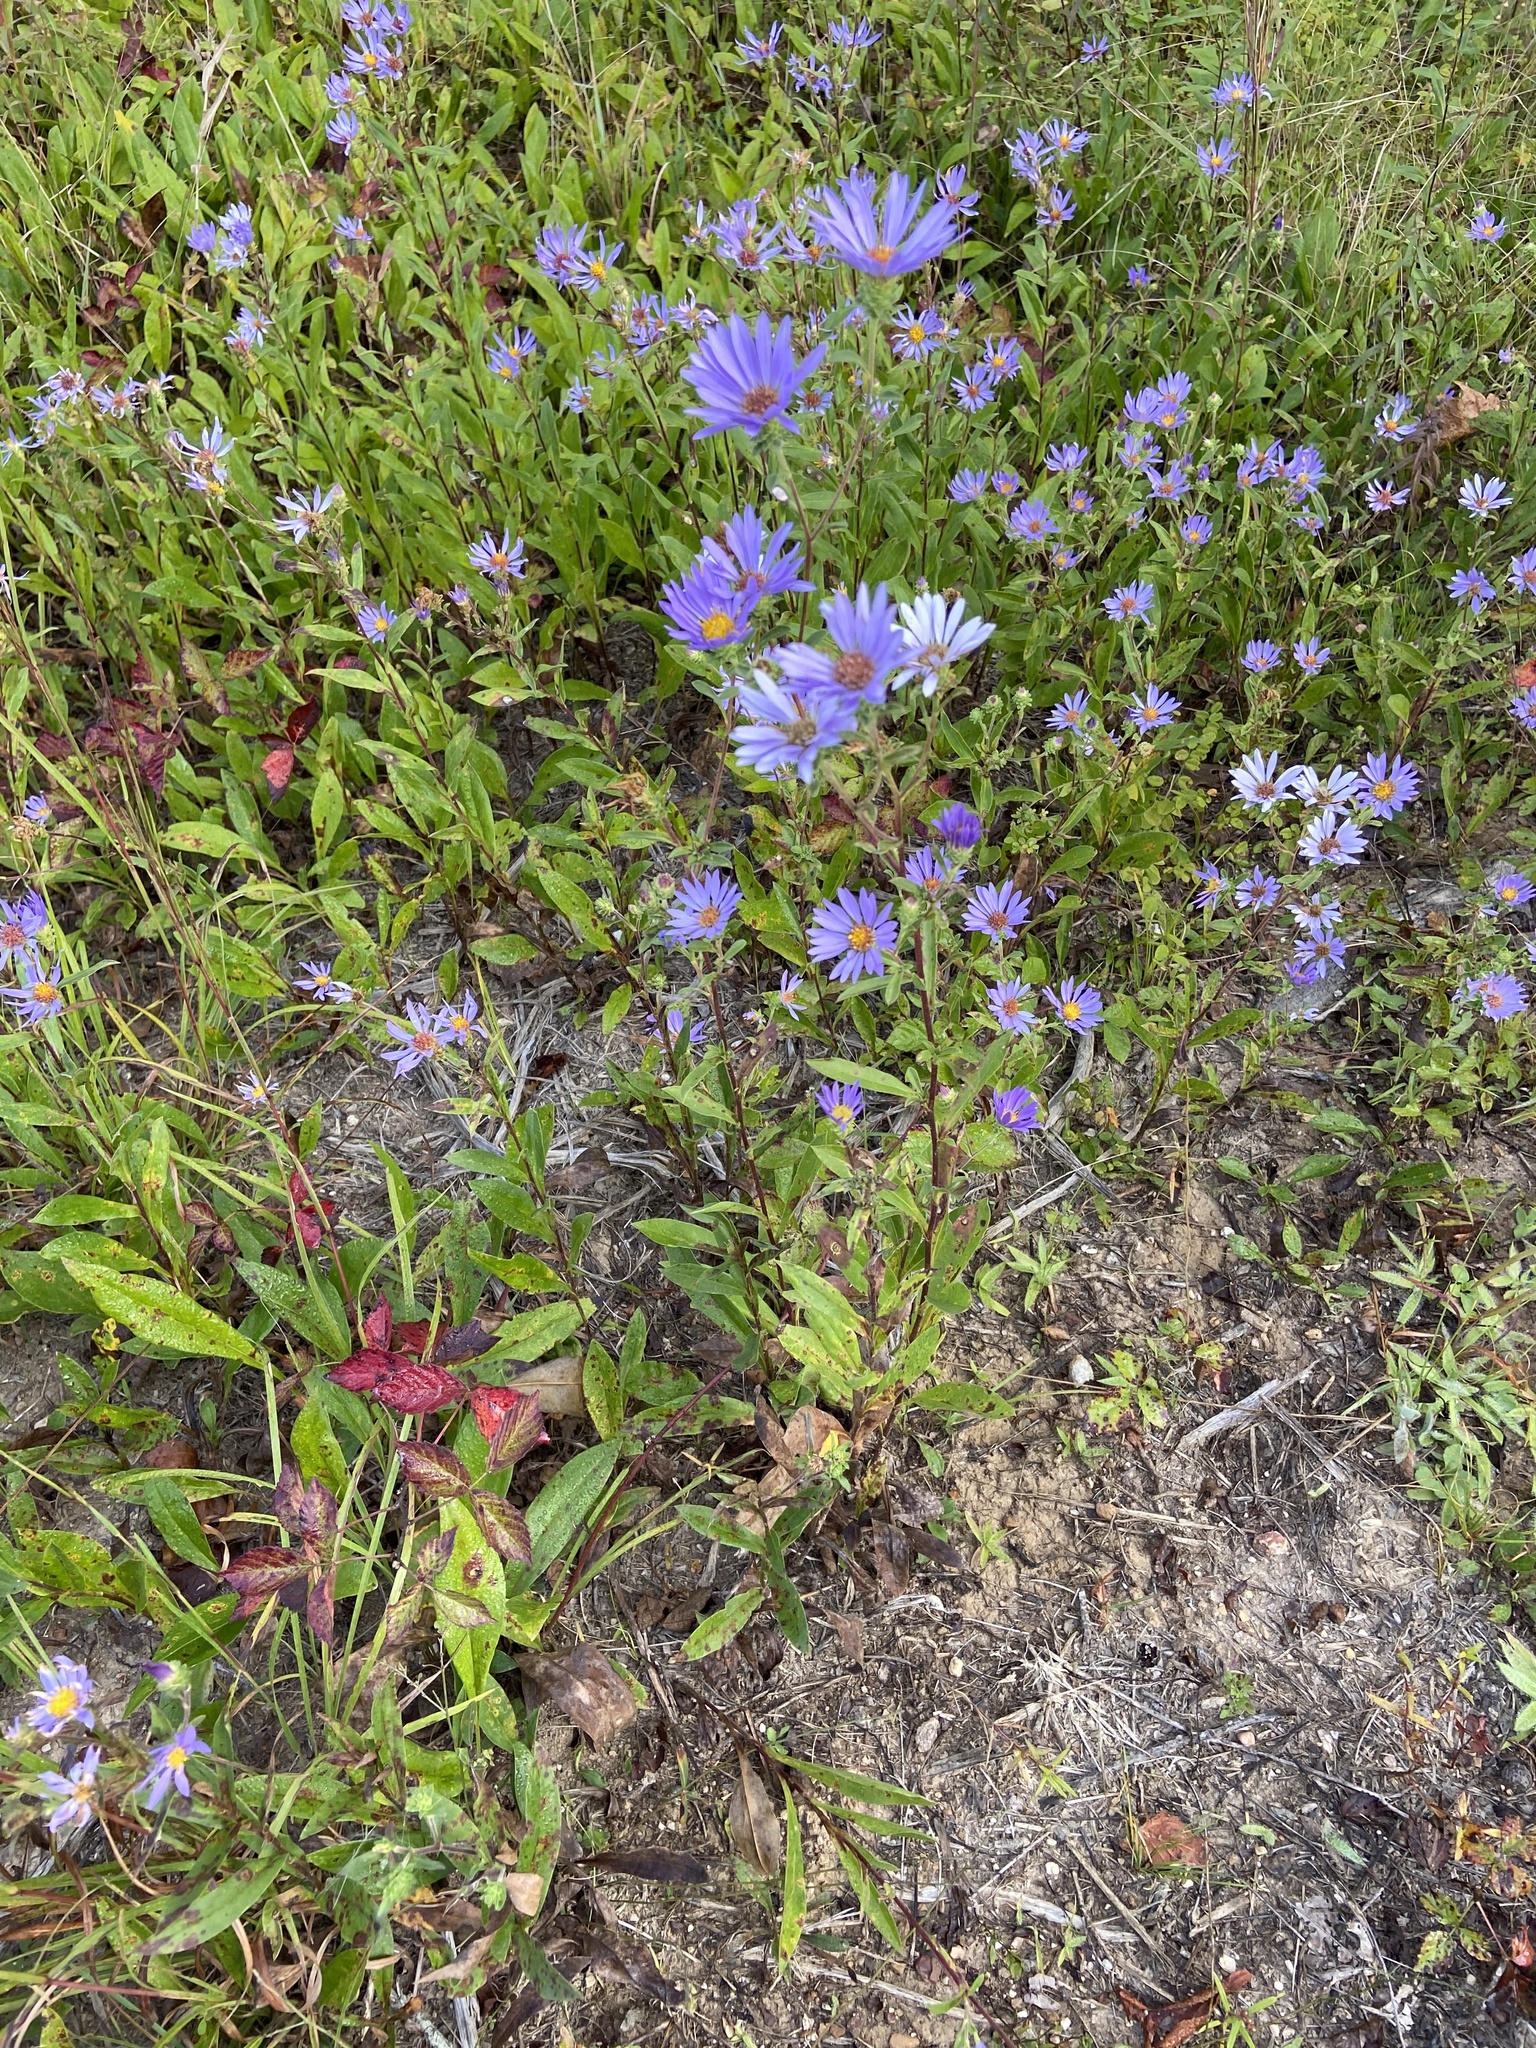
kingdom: Plantae
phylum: Tracheophyta
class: Magnoliopsida
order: Asterales
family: Asteraceae
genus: Eurybia
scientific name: Eurybia spectabilis
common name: Low showy aster
